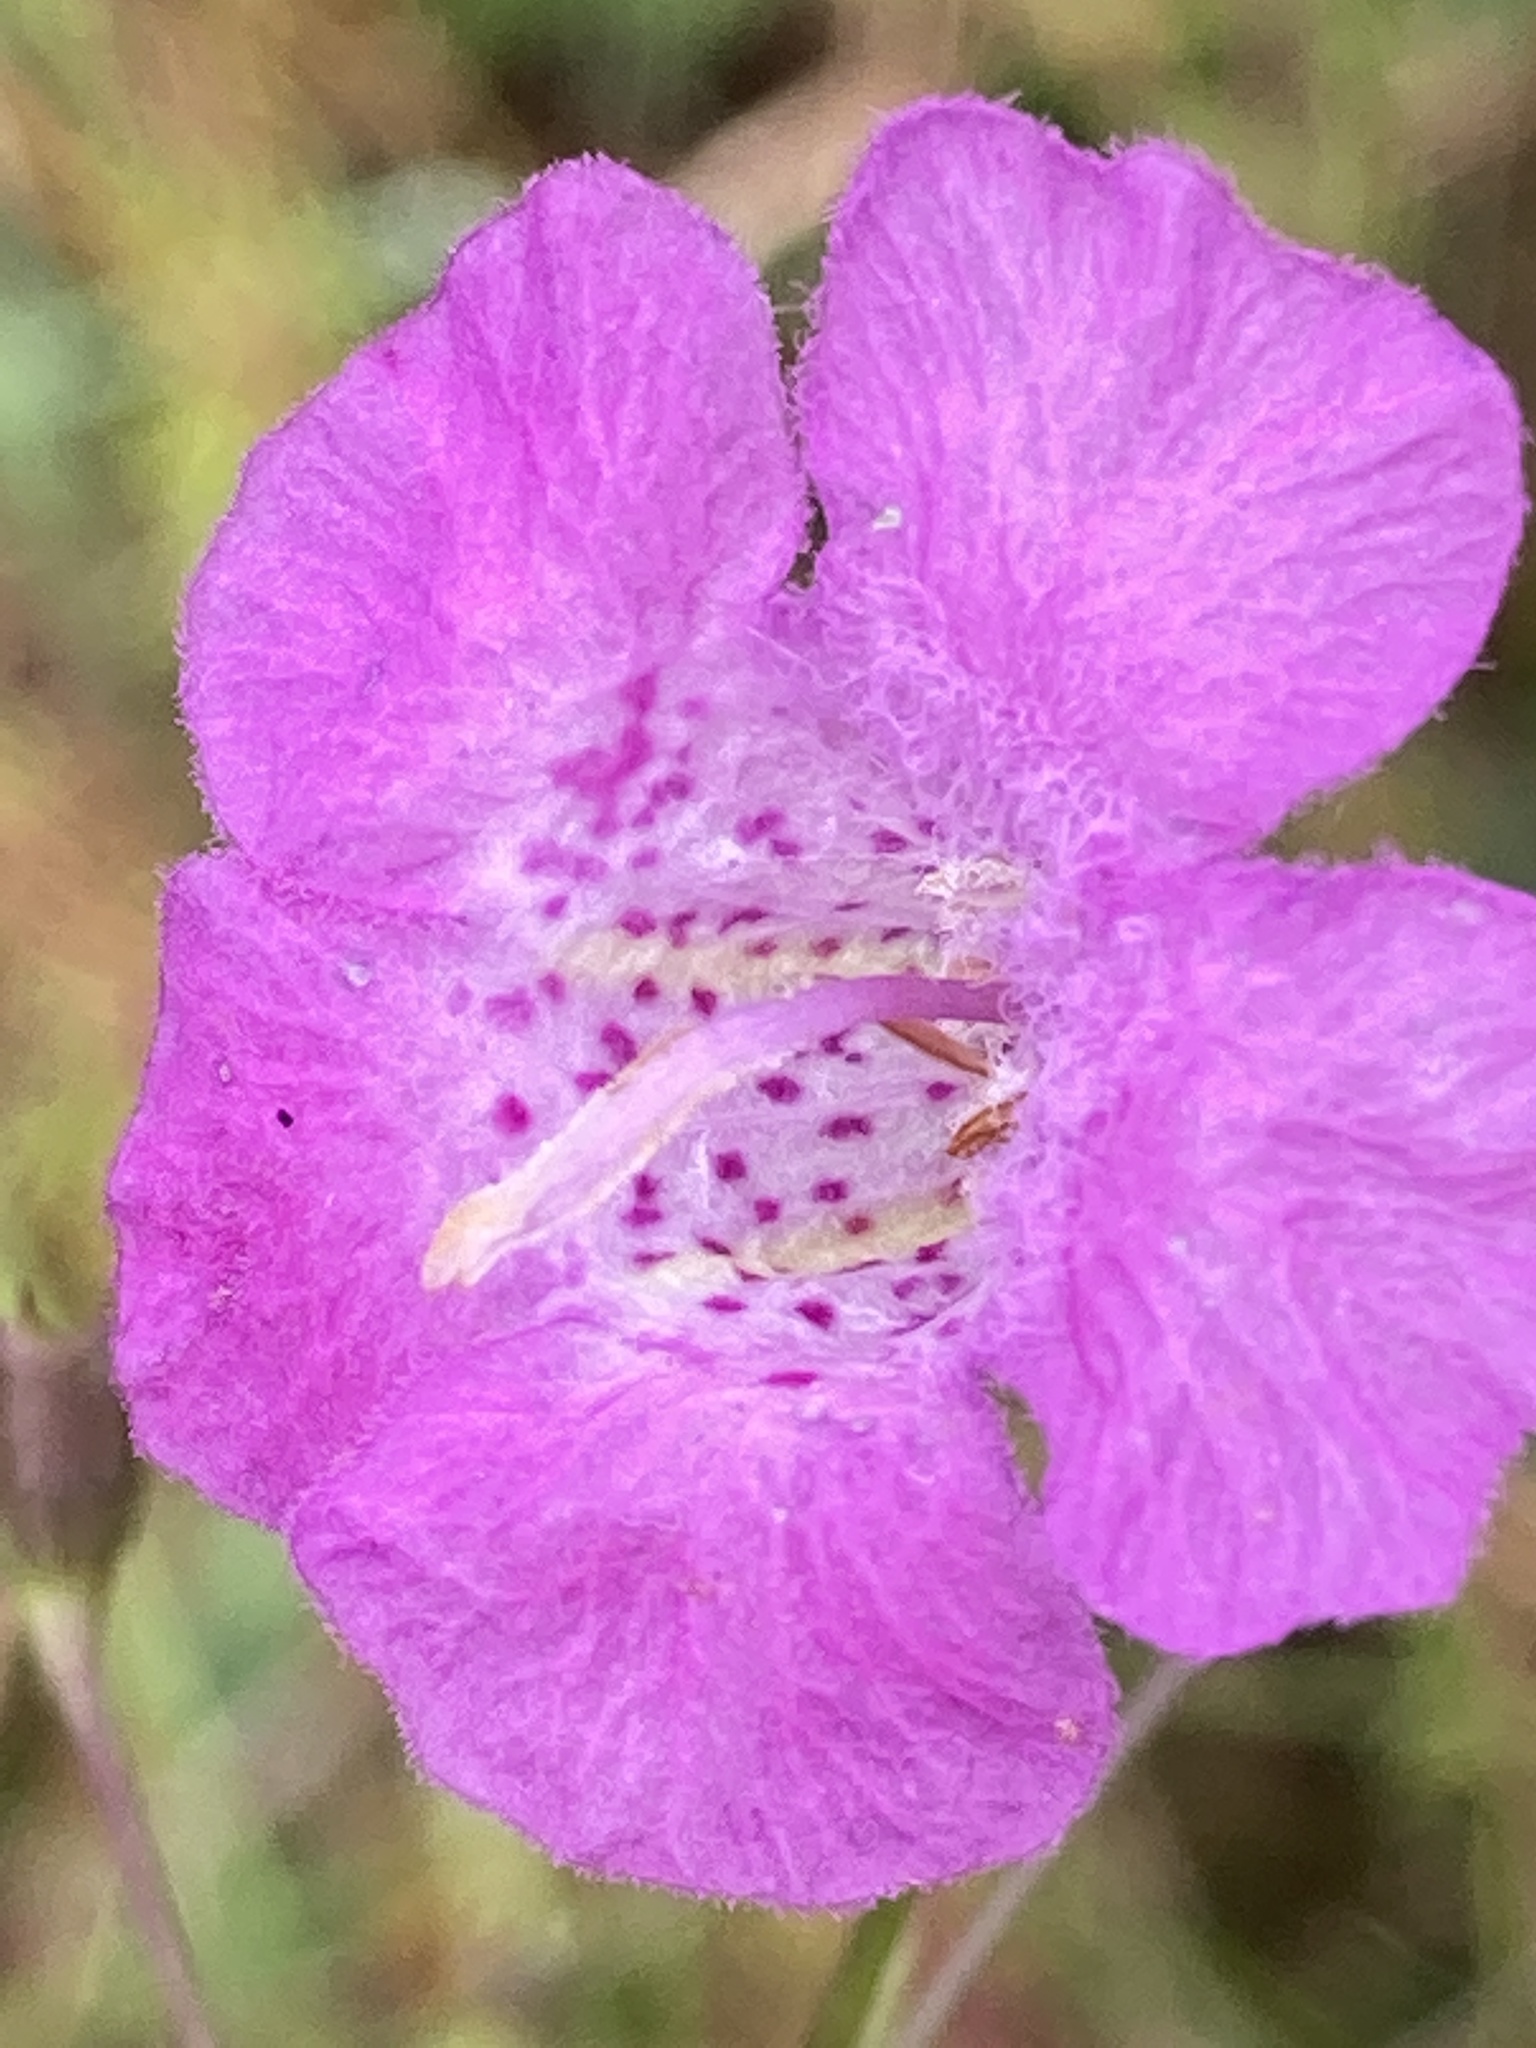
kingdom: Plantae
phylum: Tracheophyta
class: Magnoliopsida
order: Lamiales
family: Orobanchaceae
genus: Agalinis
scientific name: Agalinis fasciculata
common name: Beach false foxglove
